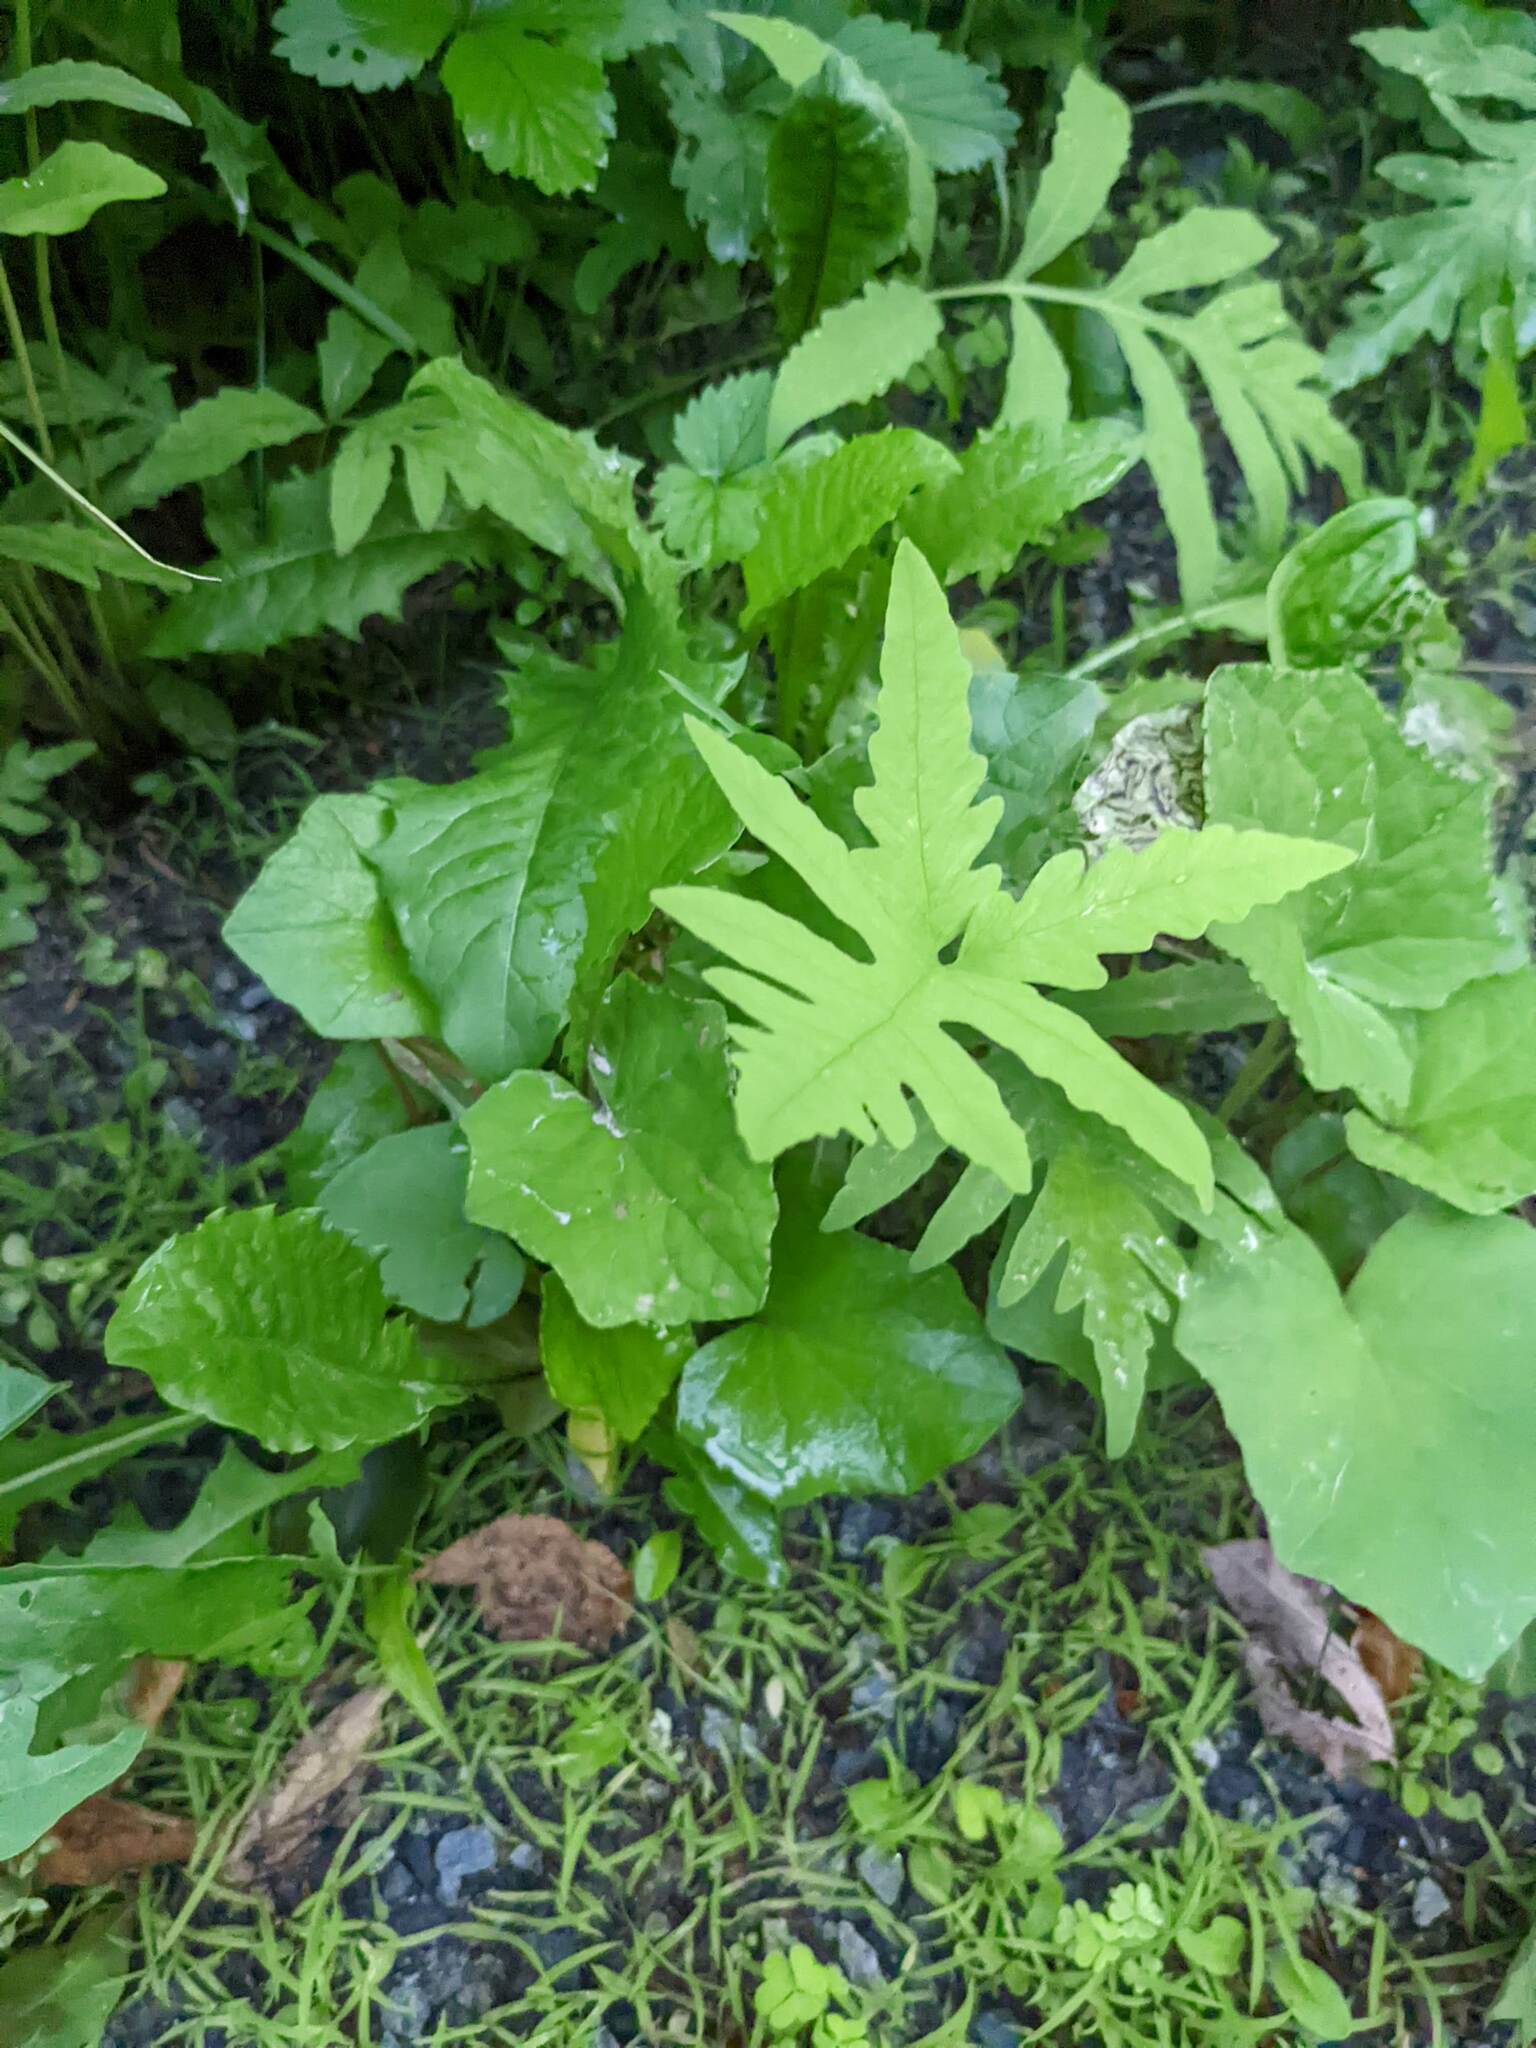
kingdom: Plantae
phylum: Tracheophyta
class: Magnoliopsida
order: Asterales
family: Asteraceae
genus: Tussilago
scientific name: Tussilago farfara
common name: Coltsfoot
